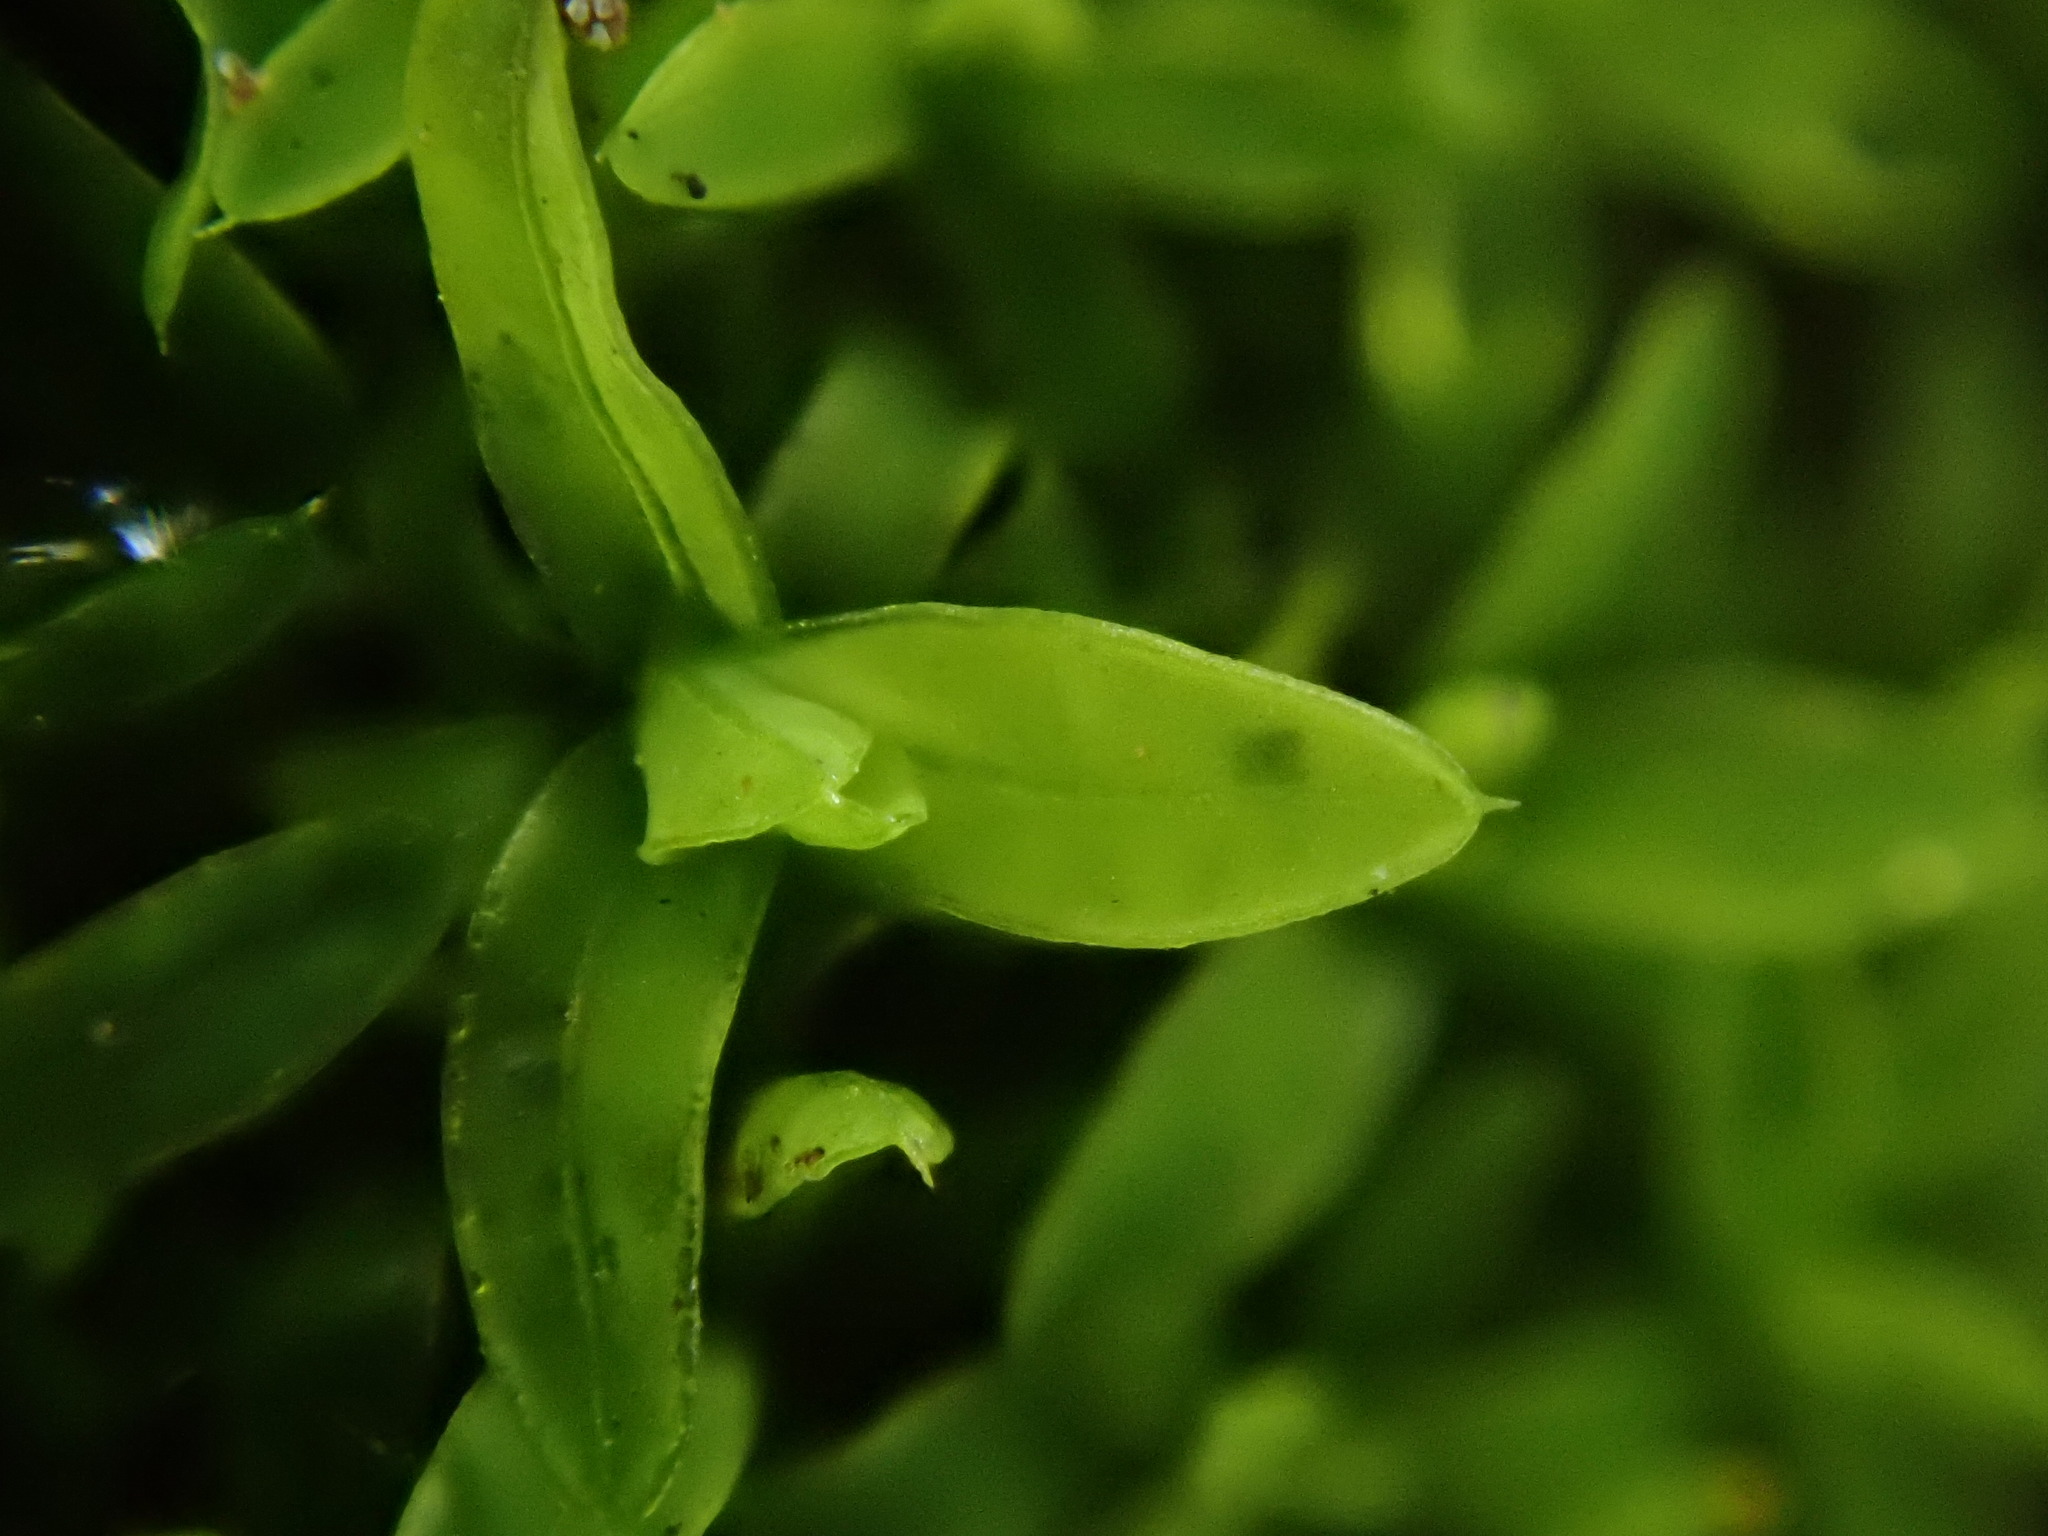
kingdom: Plantae
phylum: Bryophyta
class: Bryopsida
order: Pottiales
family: Pottiaceae
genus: Tortula
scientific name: Tortula marginata
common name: Bordered screw-moss
